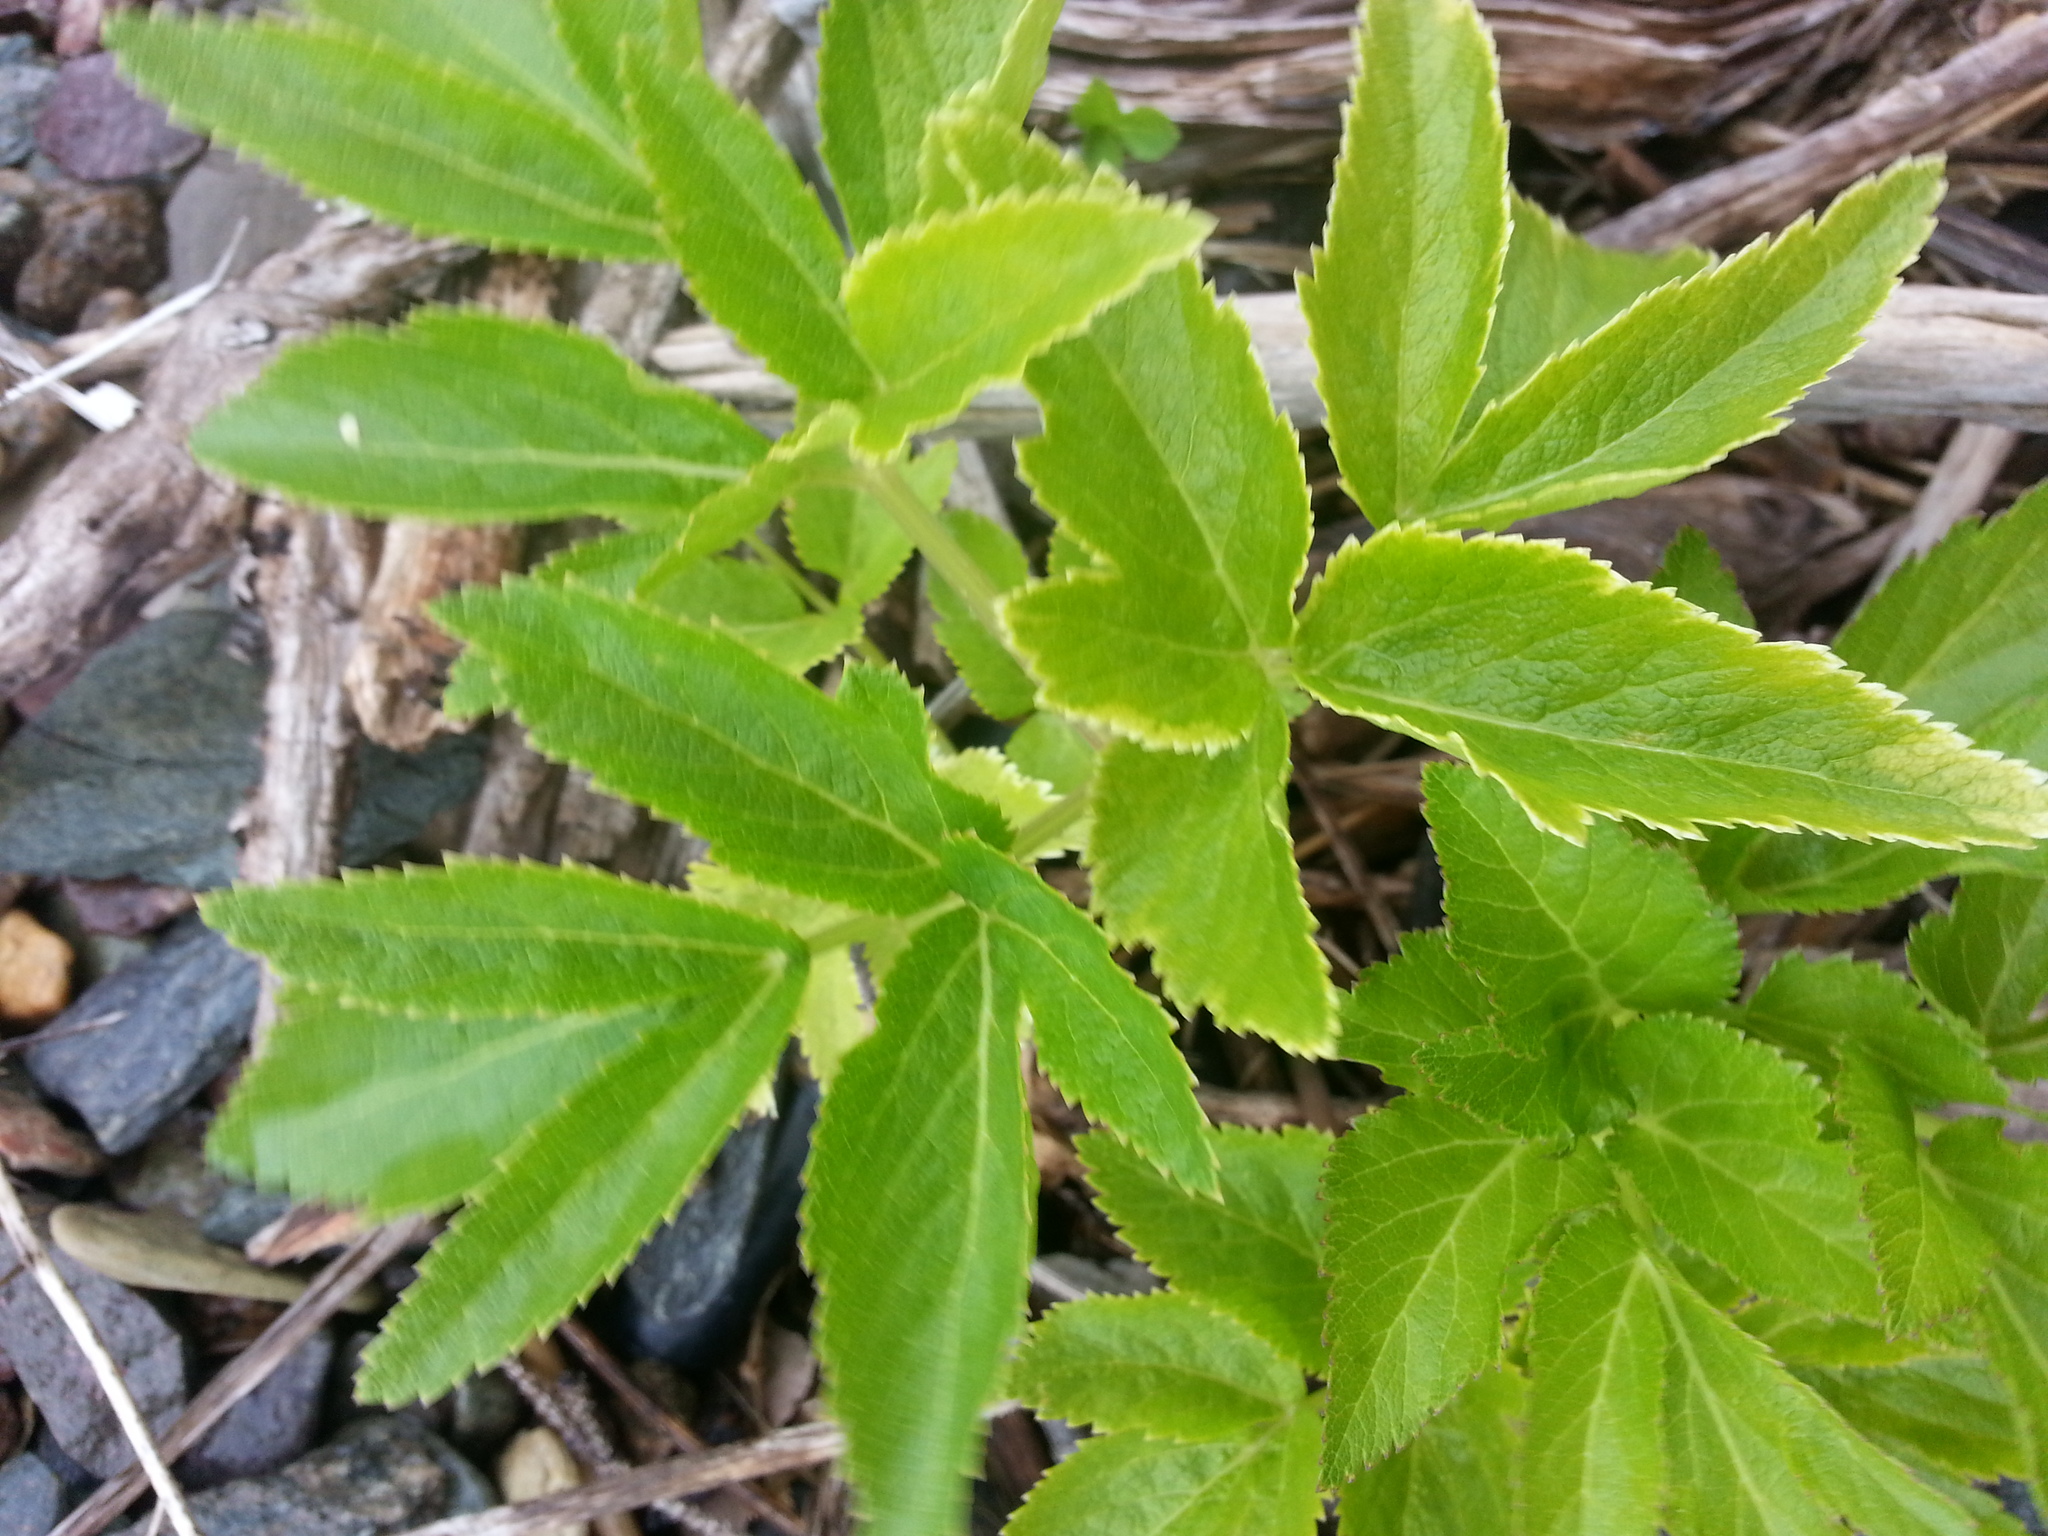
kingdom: Plantae
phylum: Tracheophyta
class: Magnoliopsida
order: Apiales
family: Apiaceae
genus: Ligusticum
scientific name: Ligusticum scothicum
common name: Beach lovage
